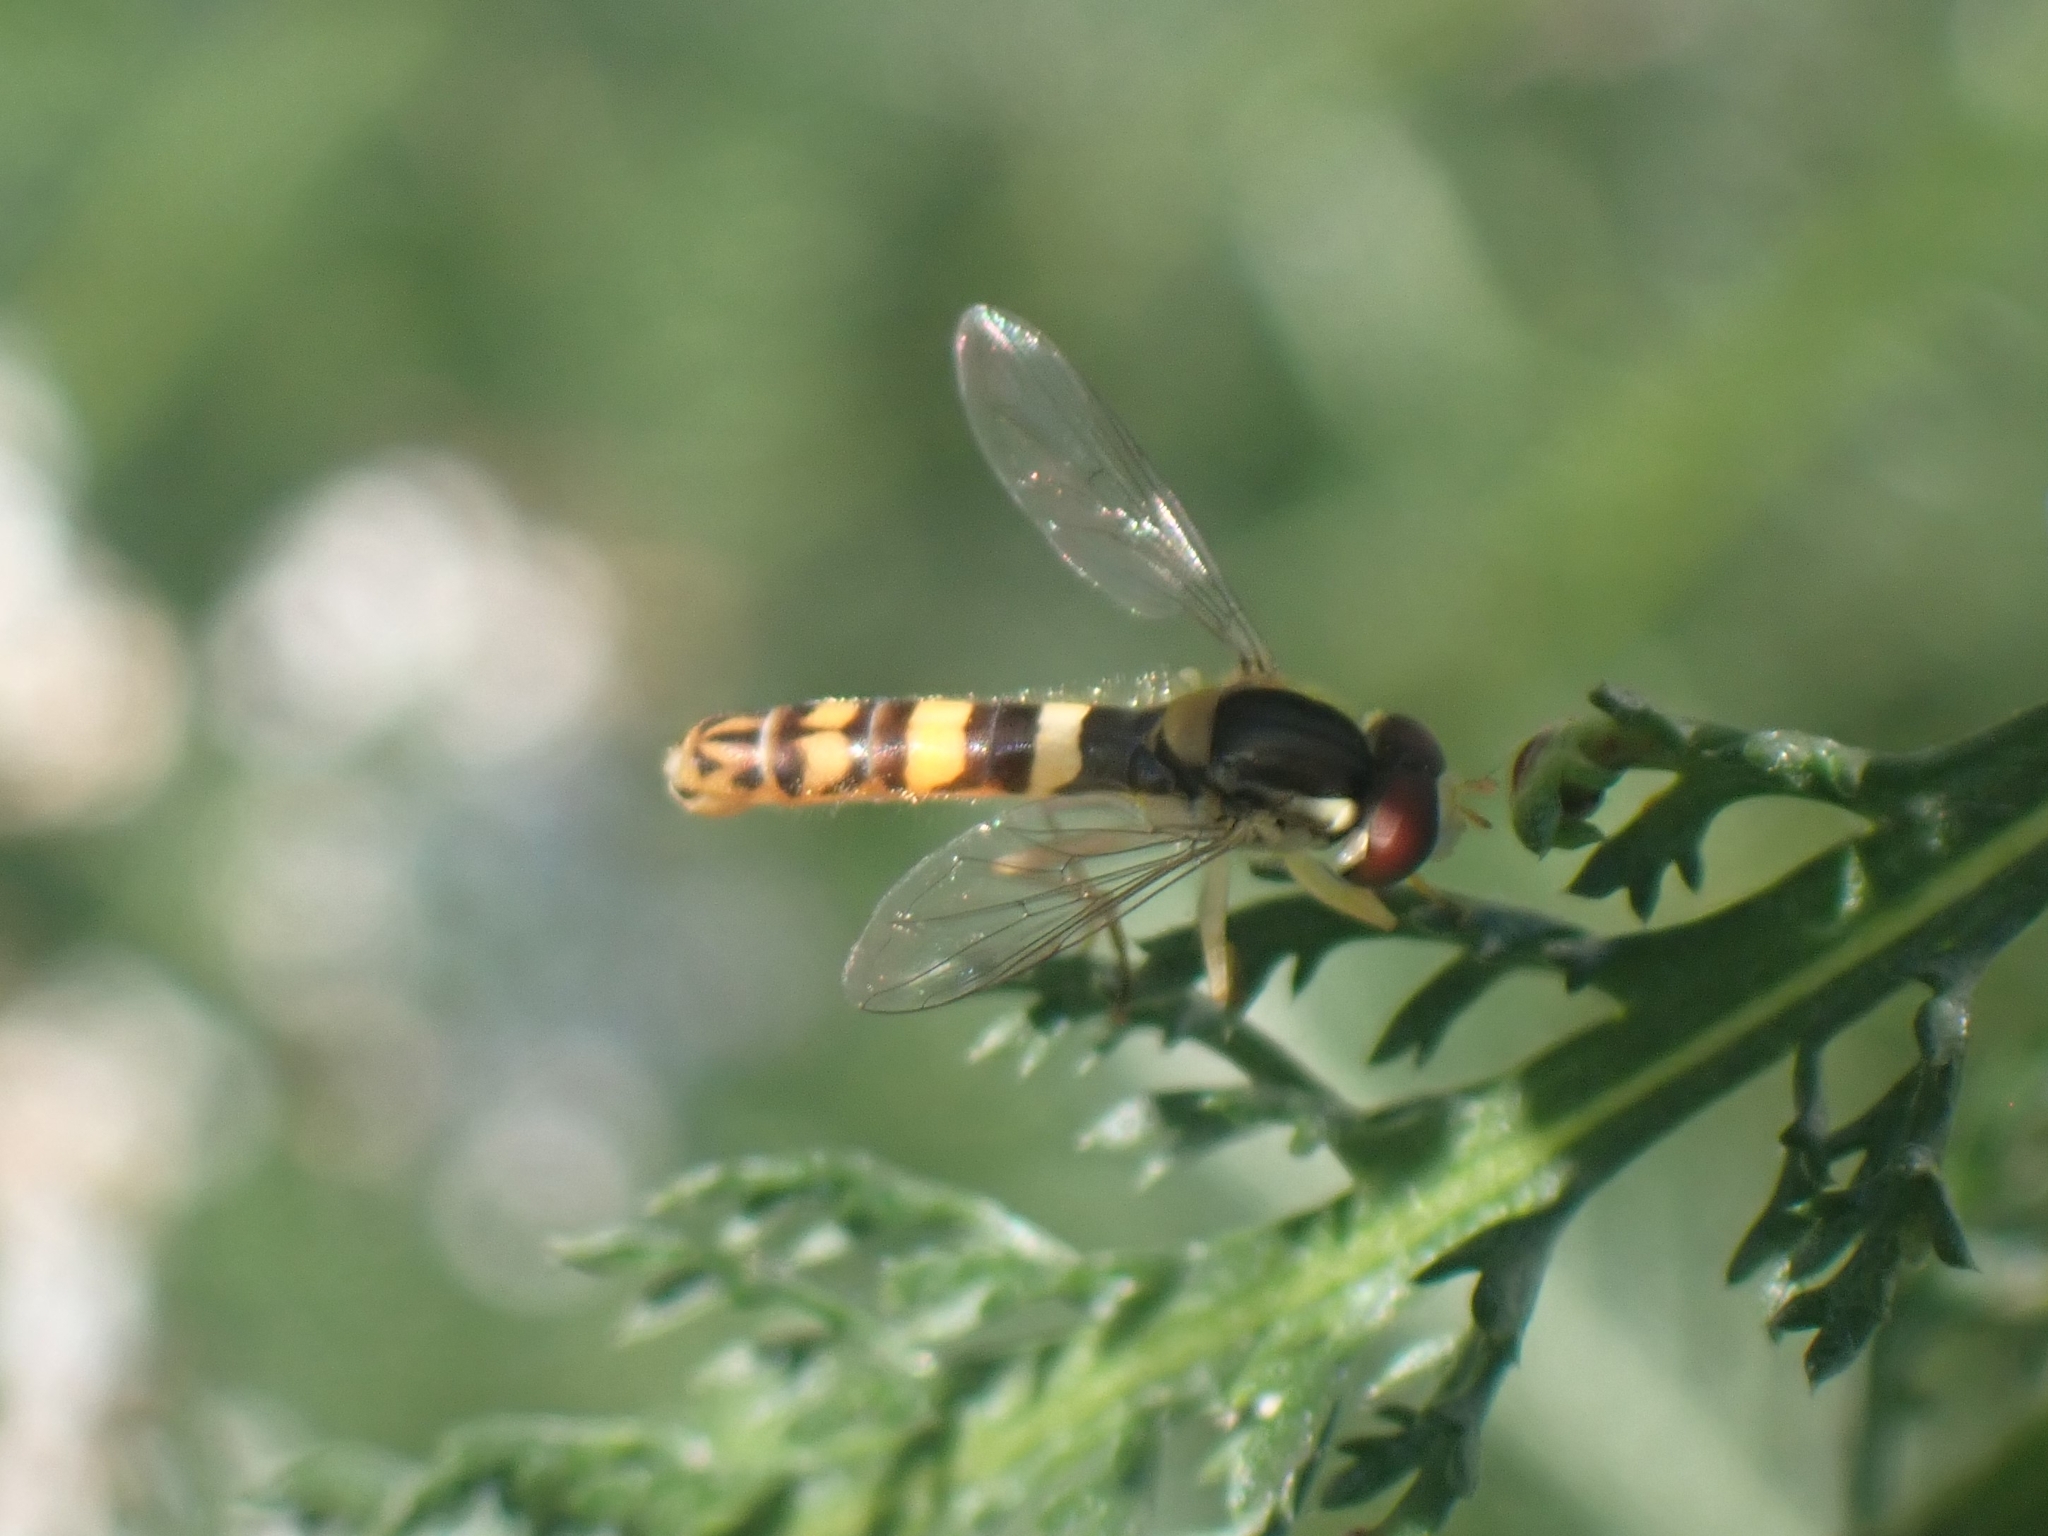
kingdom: Animalia
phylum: Arthropoda
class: Insecta
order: Diptera
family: Syrphidae
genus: Sphaerophoria
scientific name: Sphaerophoria scripta
